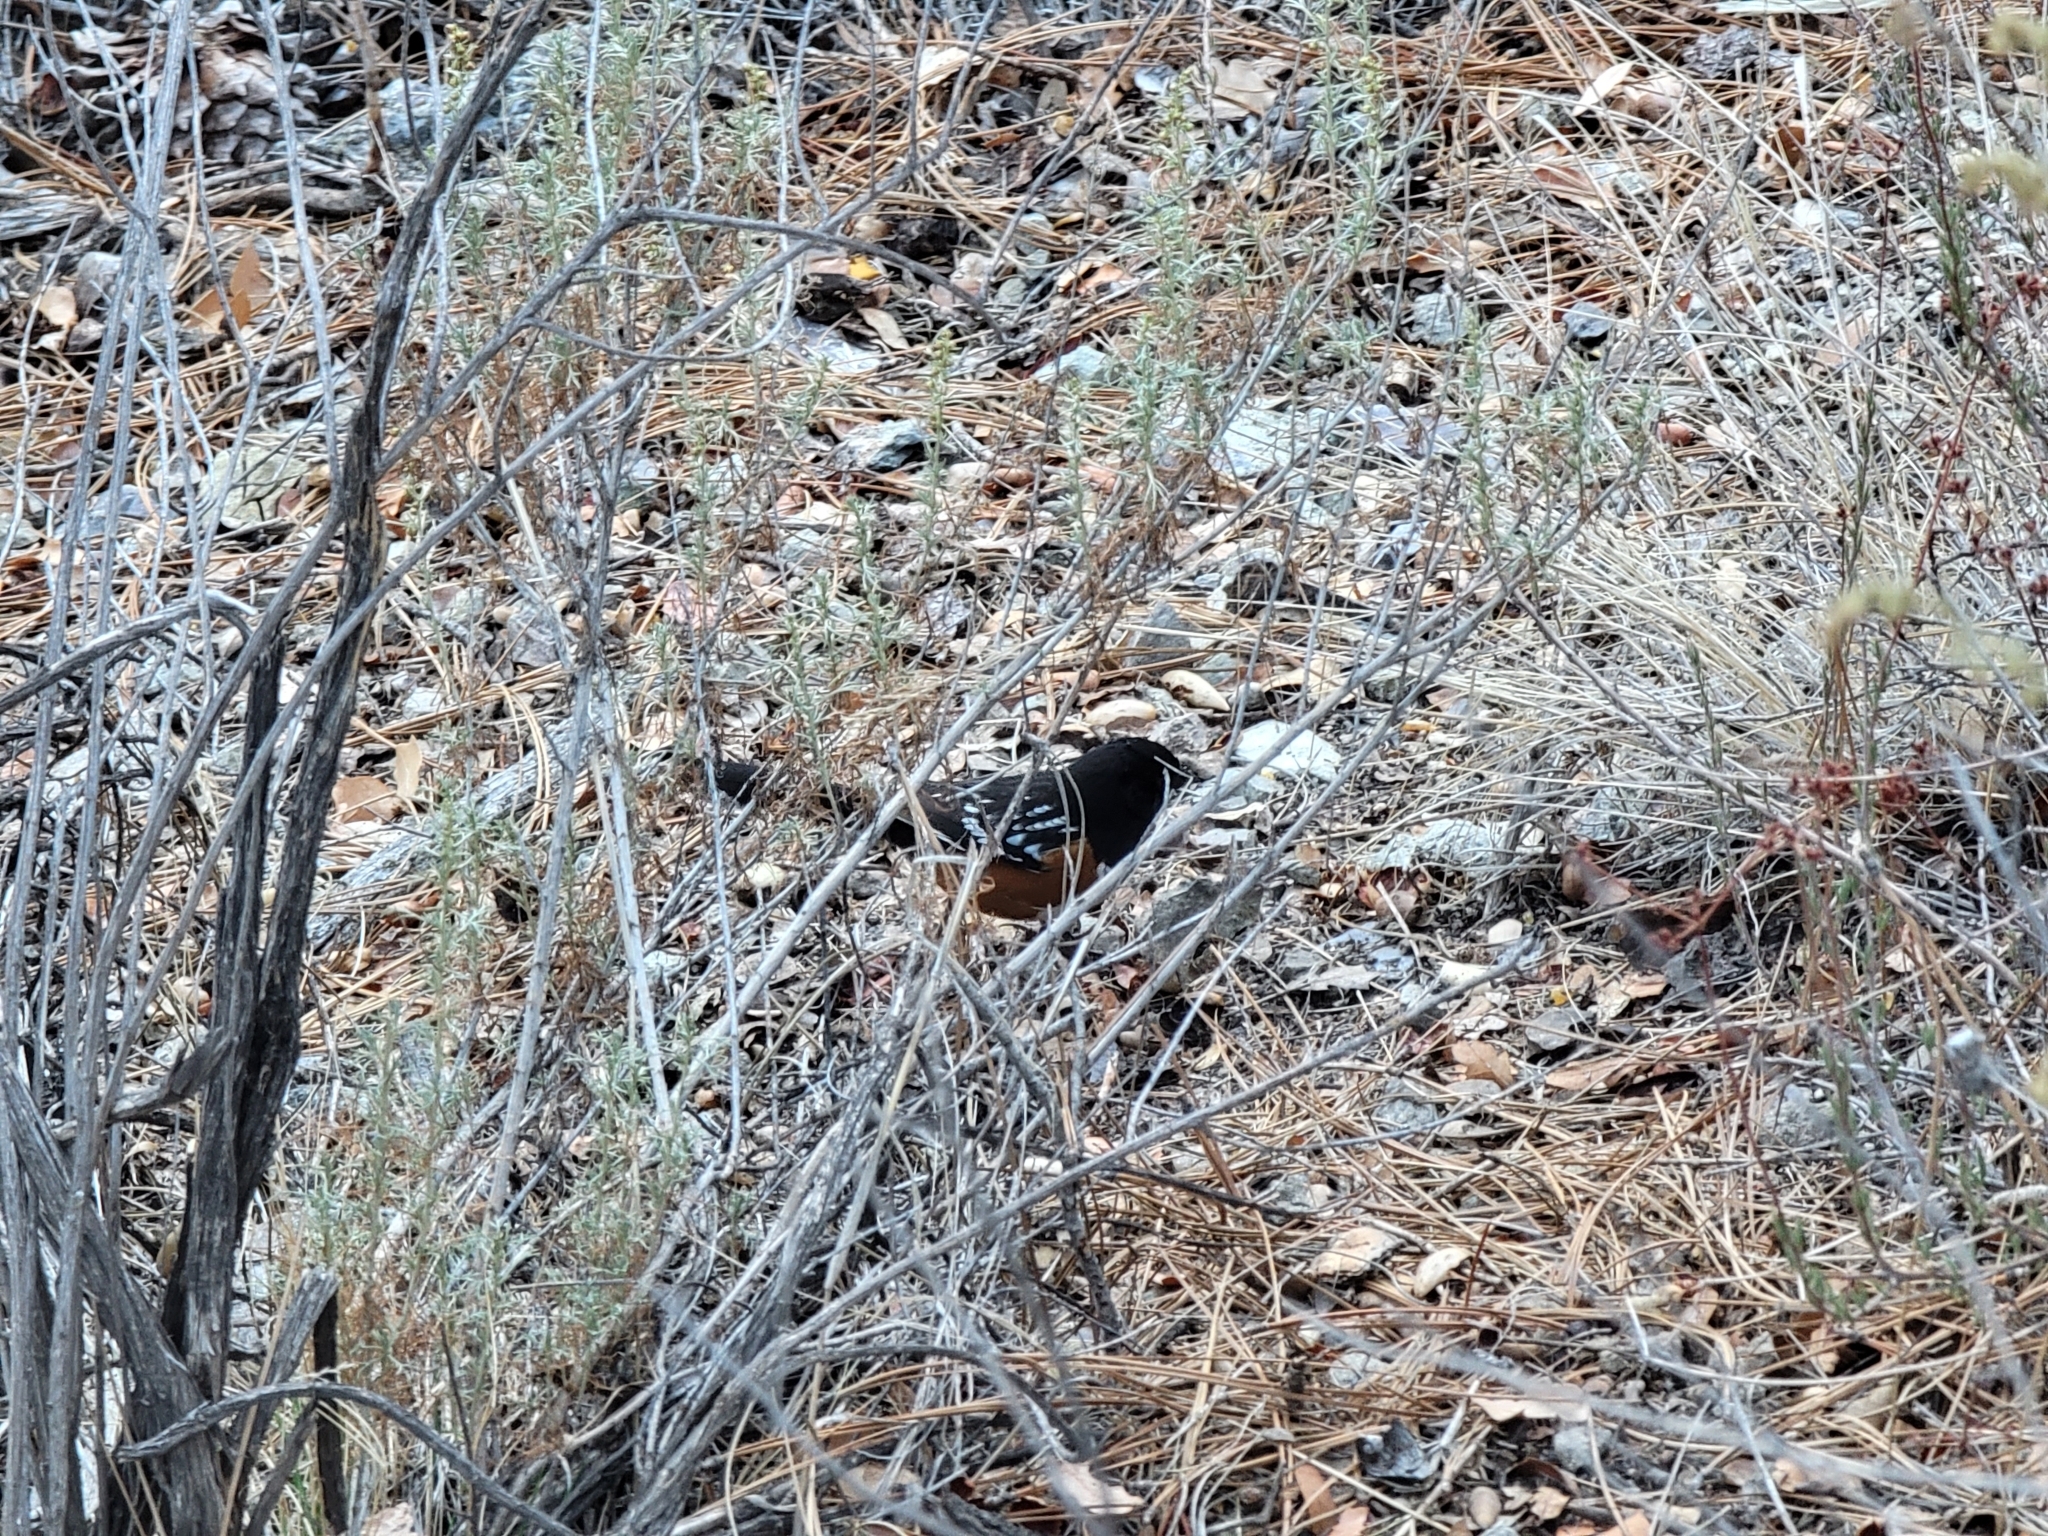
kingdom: Animalia
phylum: Chordata
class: Aves
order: Passeriformes
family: Passerellidae
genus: Pipilo
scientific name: Pipilo maculatus
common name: Spotted towhee
